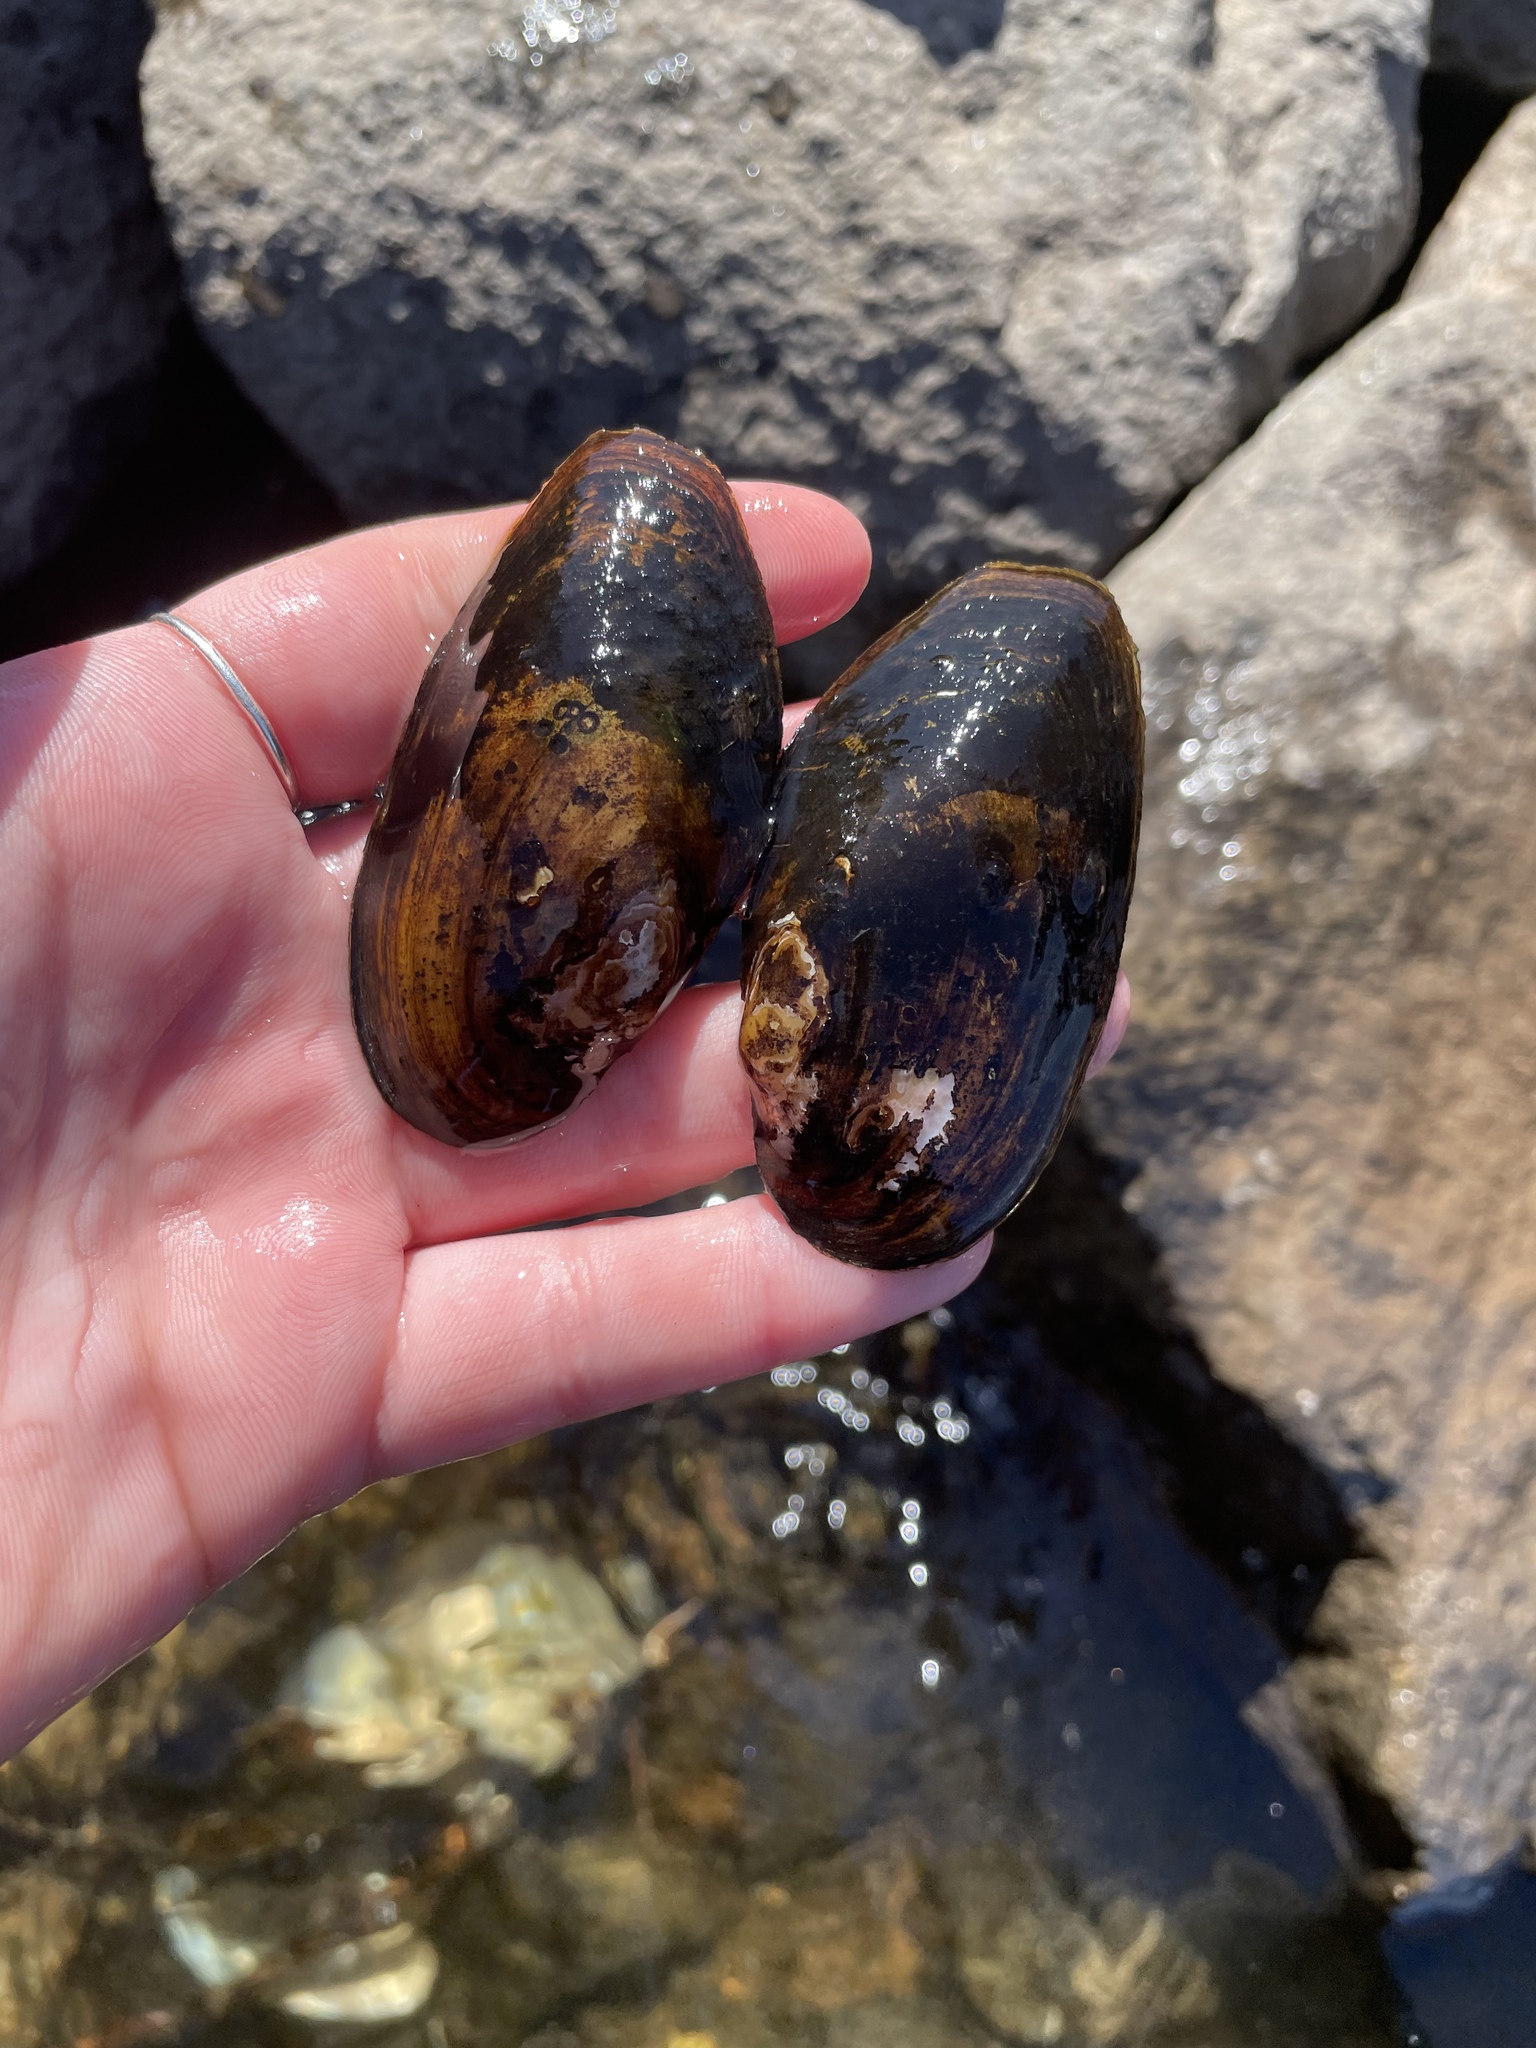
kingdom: Animalia
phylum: Mollusca
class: Bivalvia
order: Unionida
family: Unionidae
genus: Utterbackiana
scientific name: Utterbackiana implicata
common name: Alewife floater
